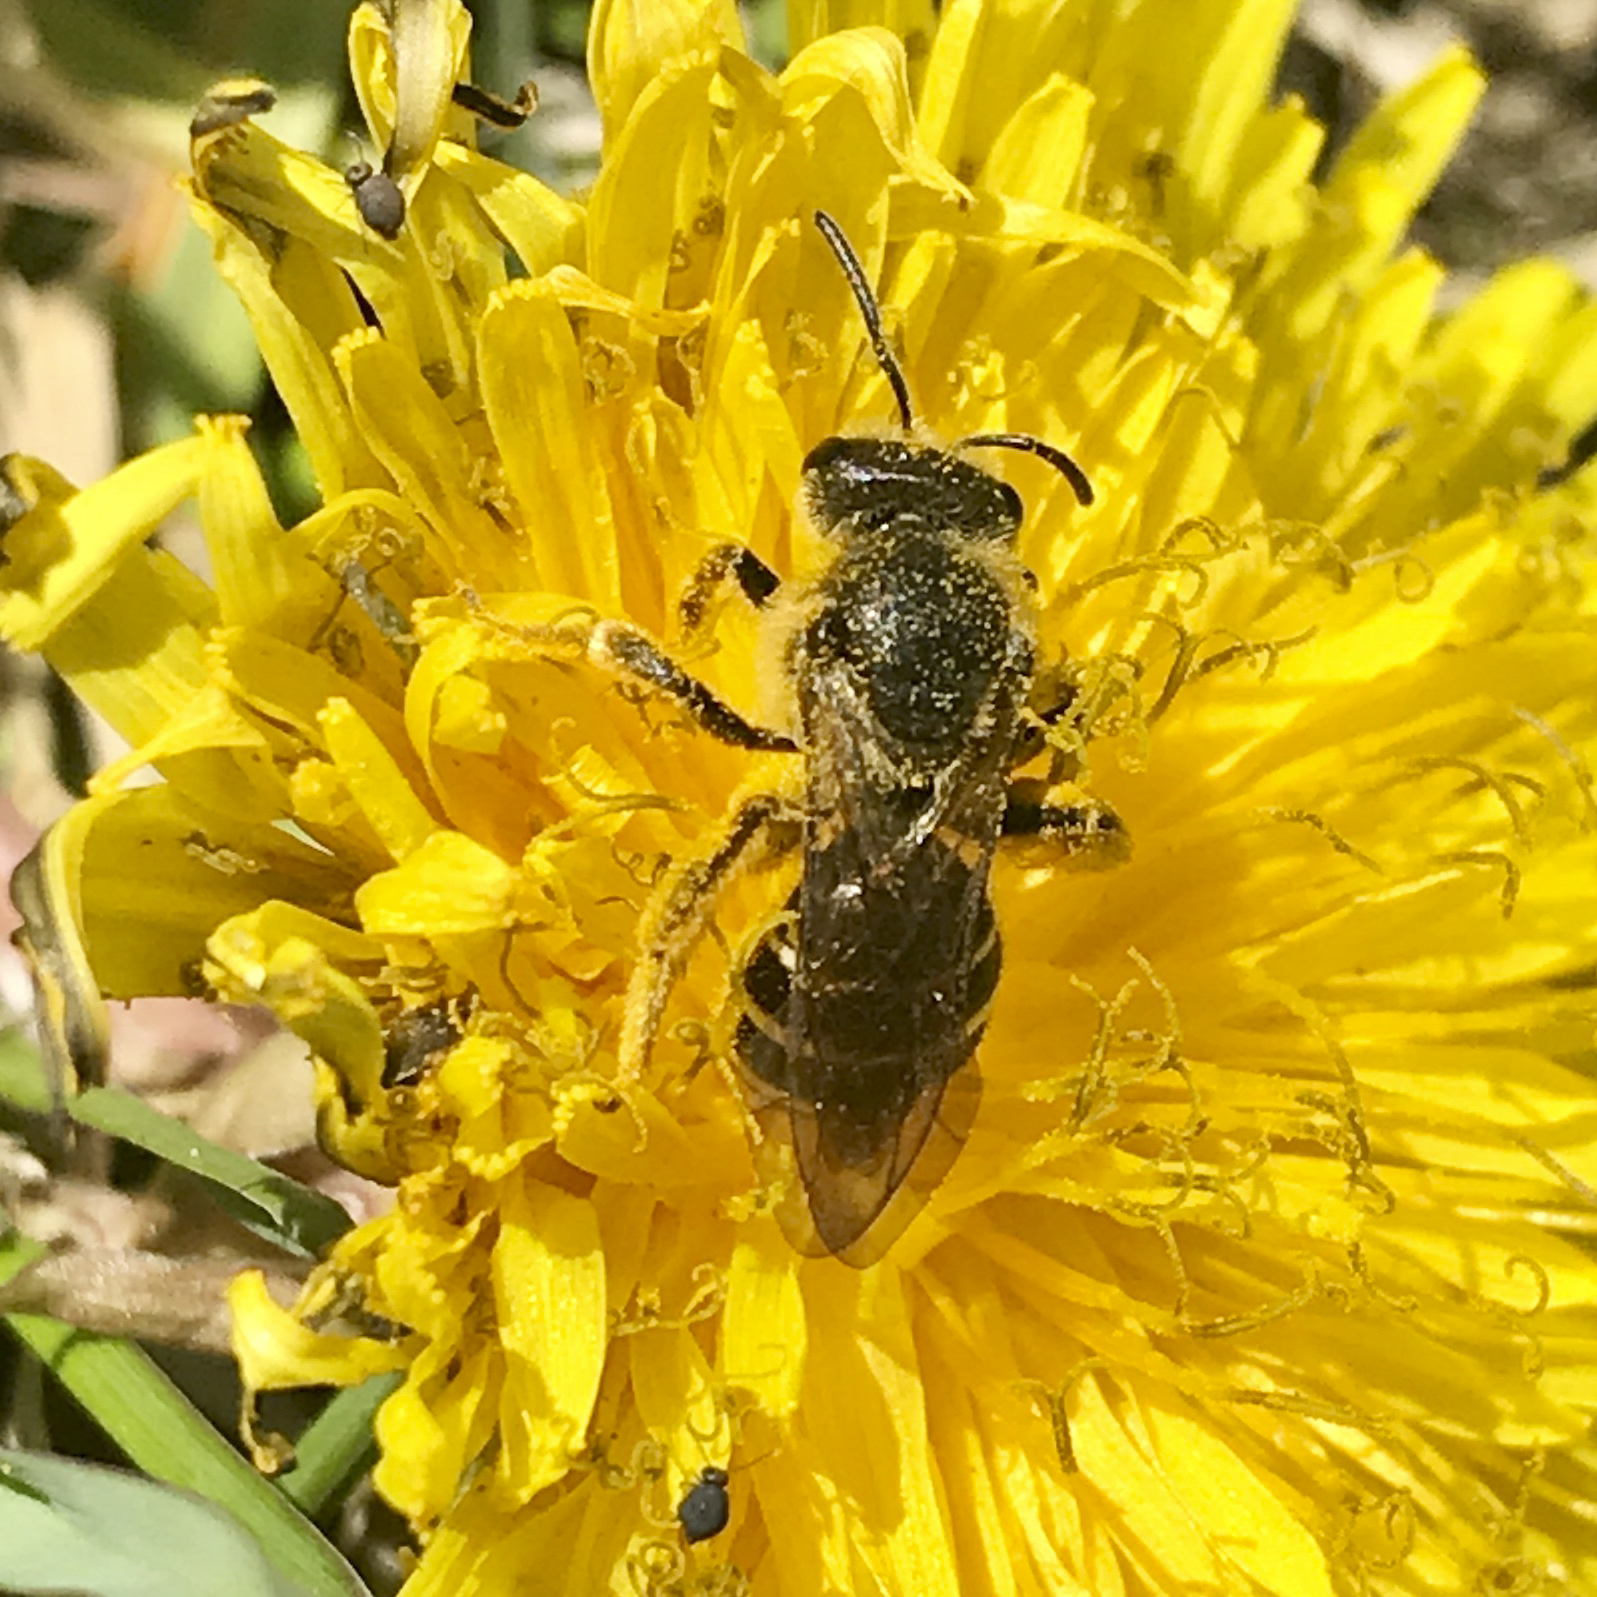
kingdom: Animalia
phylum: Arthropoda
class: Insecta
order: Hymenoptera
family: Halictidae
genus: Halictus
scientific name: Halictus rubicundus
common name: Orange-legged furrow bee
